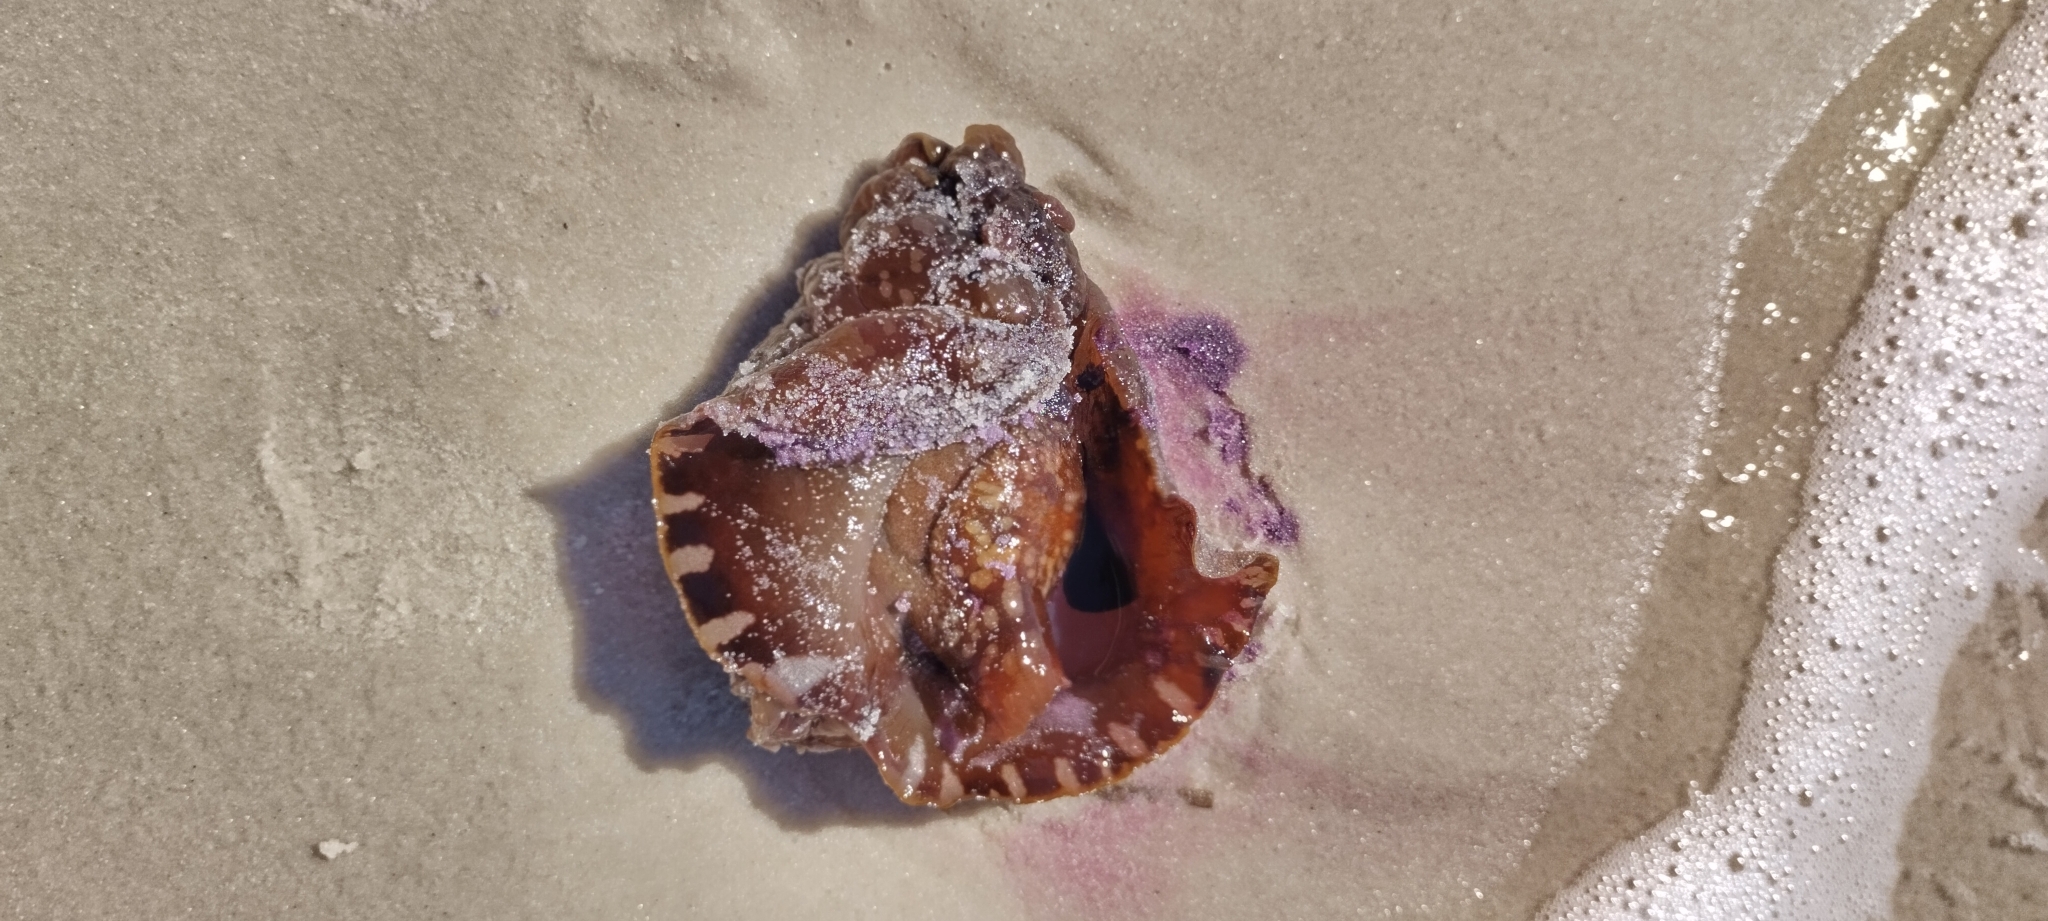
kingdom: Animalia
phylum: Mollusca
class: Gastropoda
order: Aplysiida
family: Aplysiidae
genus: Aplysia
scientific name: Aplysia brasiliana
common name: Mottled seahare
